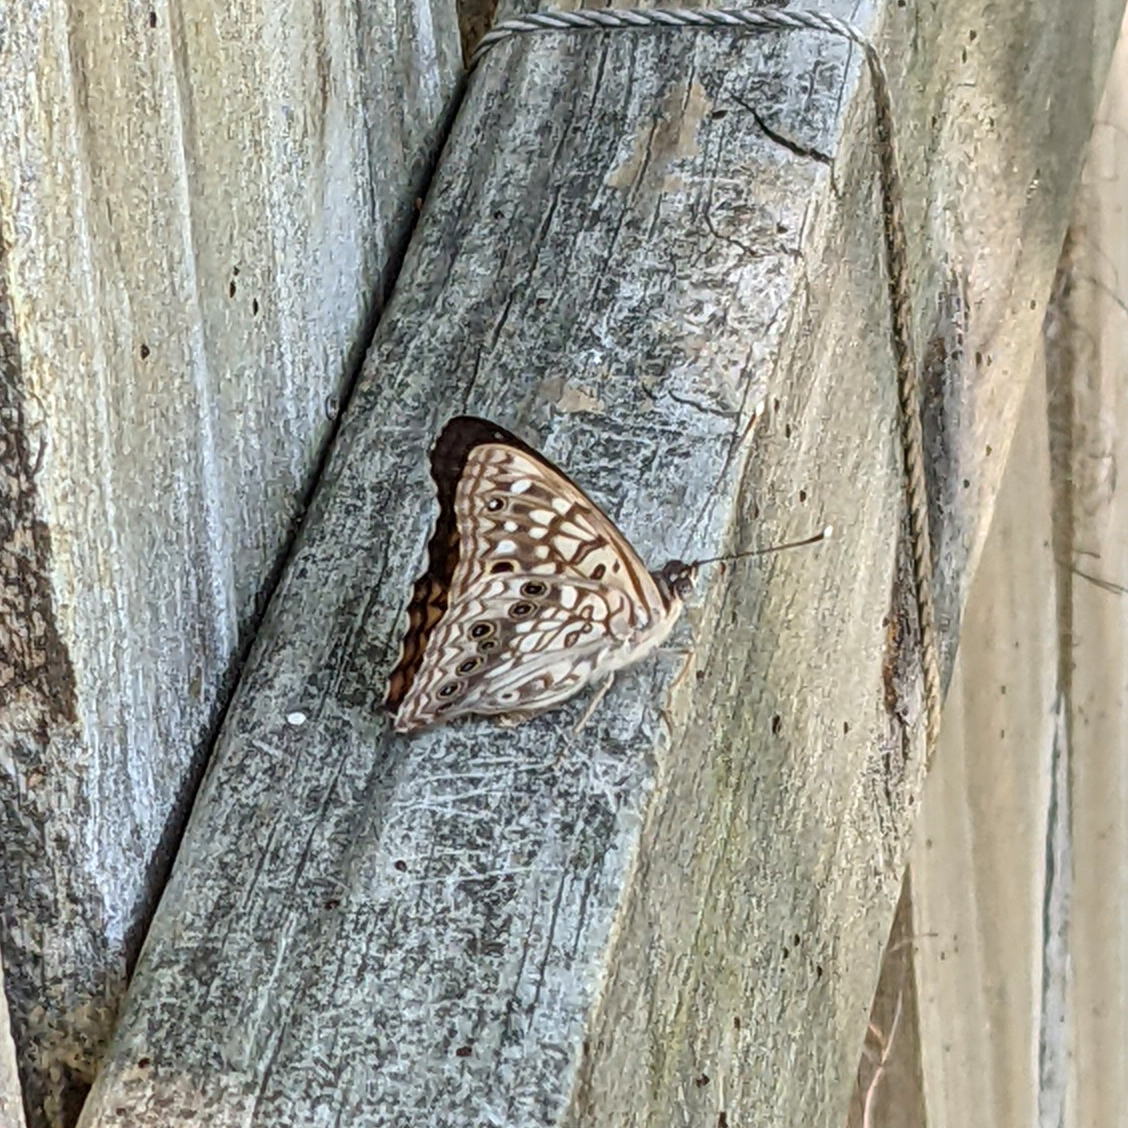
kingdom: Animalia
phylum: Arthropoda
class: Insecta
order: Lepidoptera
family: Nymphalidae
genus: Asterocampa
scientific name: Asterocampa celtis
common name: Hackberry emperor
